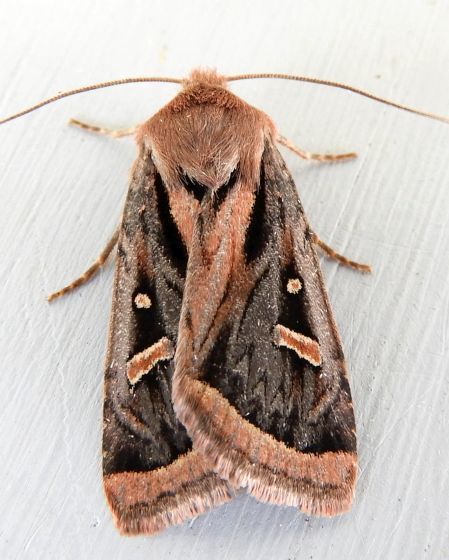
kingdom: Animalia
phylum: Arthropoda
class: Insecta
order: Lepidoptera
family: Noctuidae
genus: Trichofeltia
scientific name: Trichofeltia circumdata
